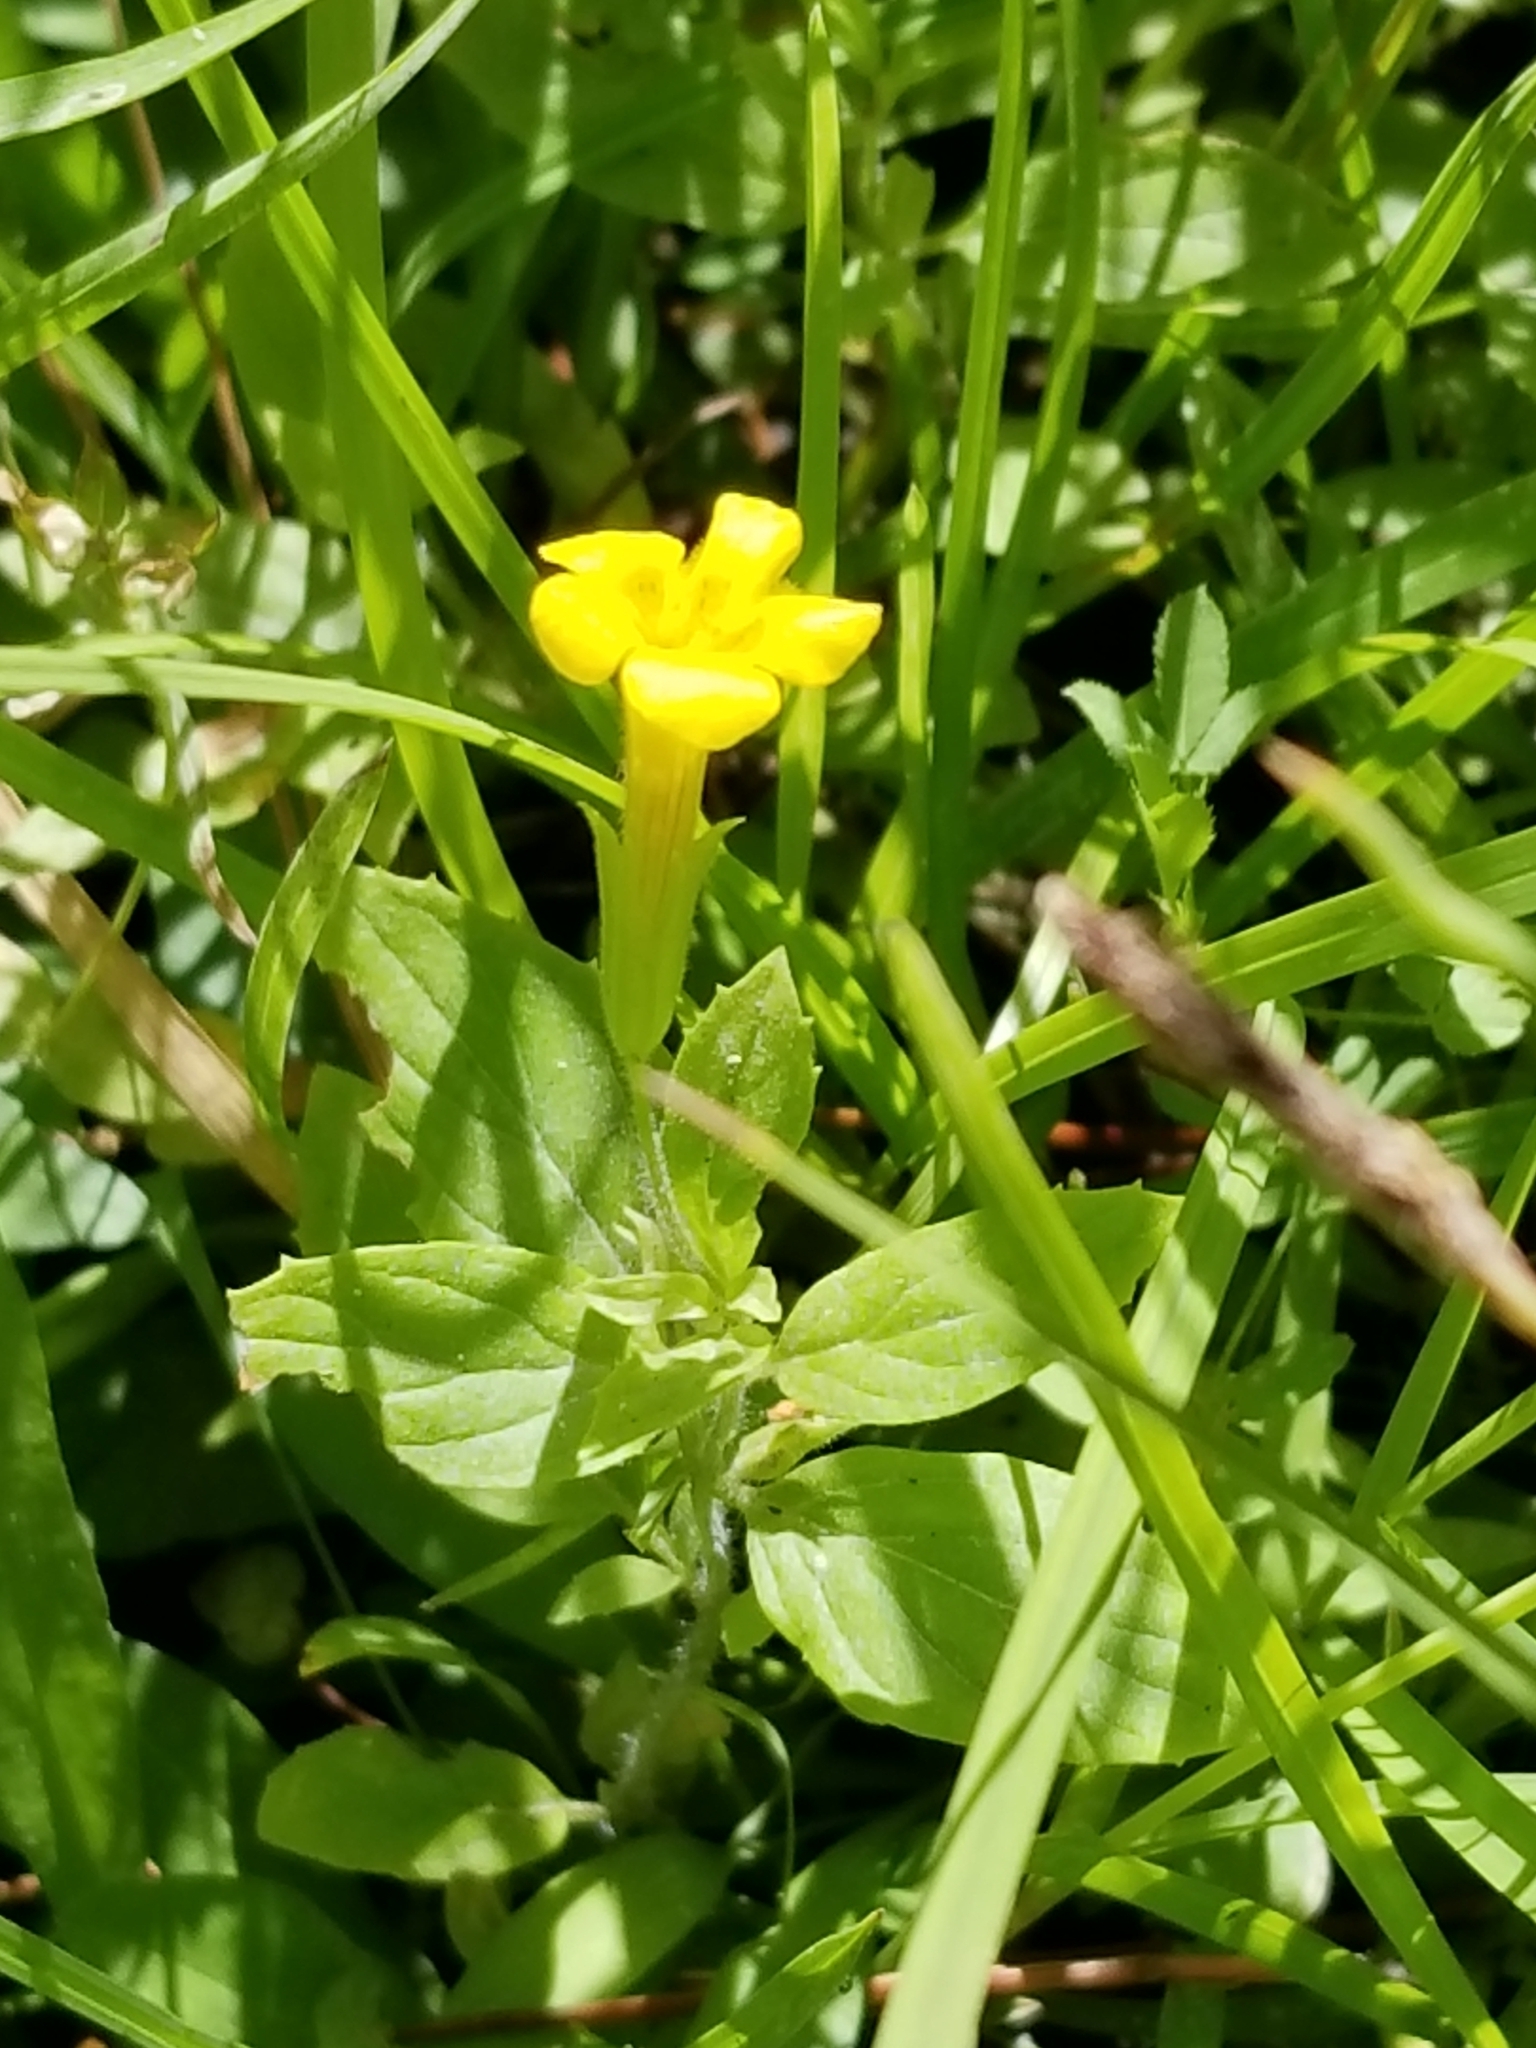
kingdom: Plantae
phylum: Tracheophyta
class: Magnoliopsida
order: Lamiales
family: Phrymaceae
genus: Erythranthe
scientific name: Erythranthe moschata
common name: Muskflower
